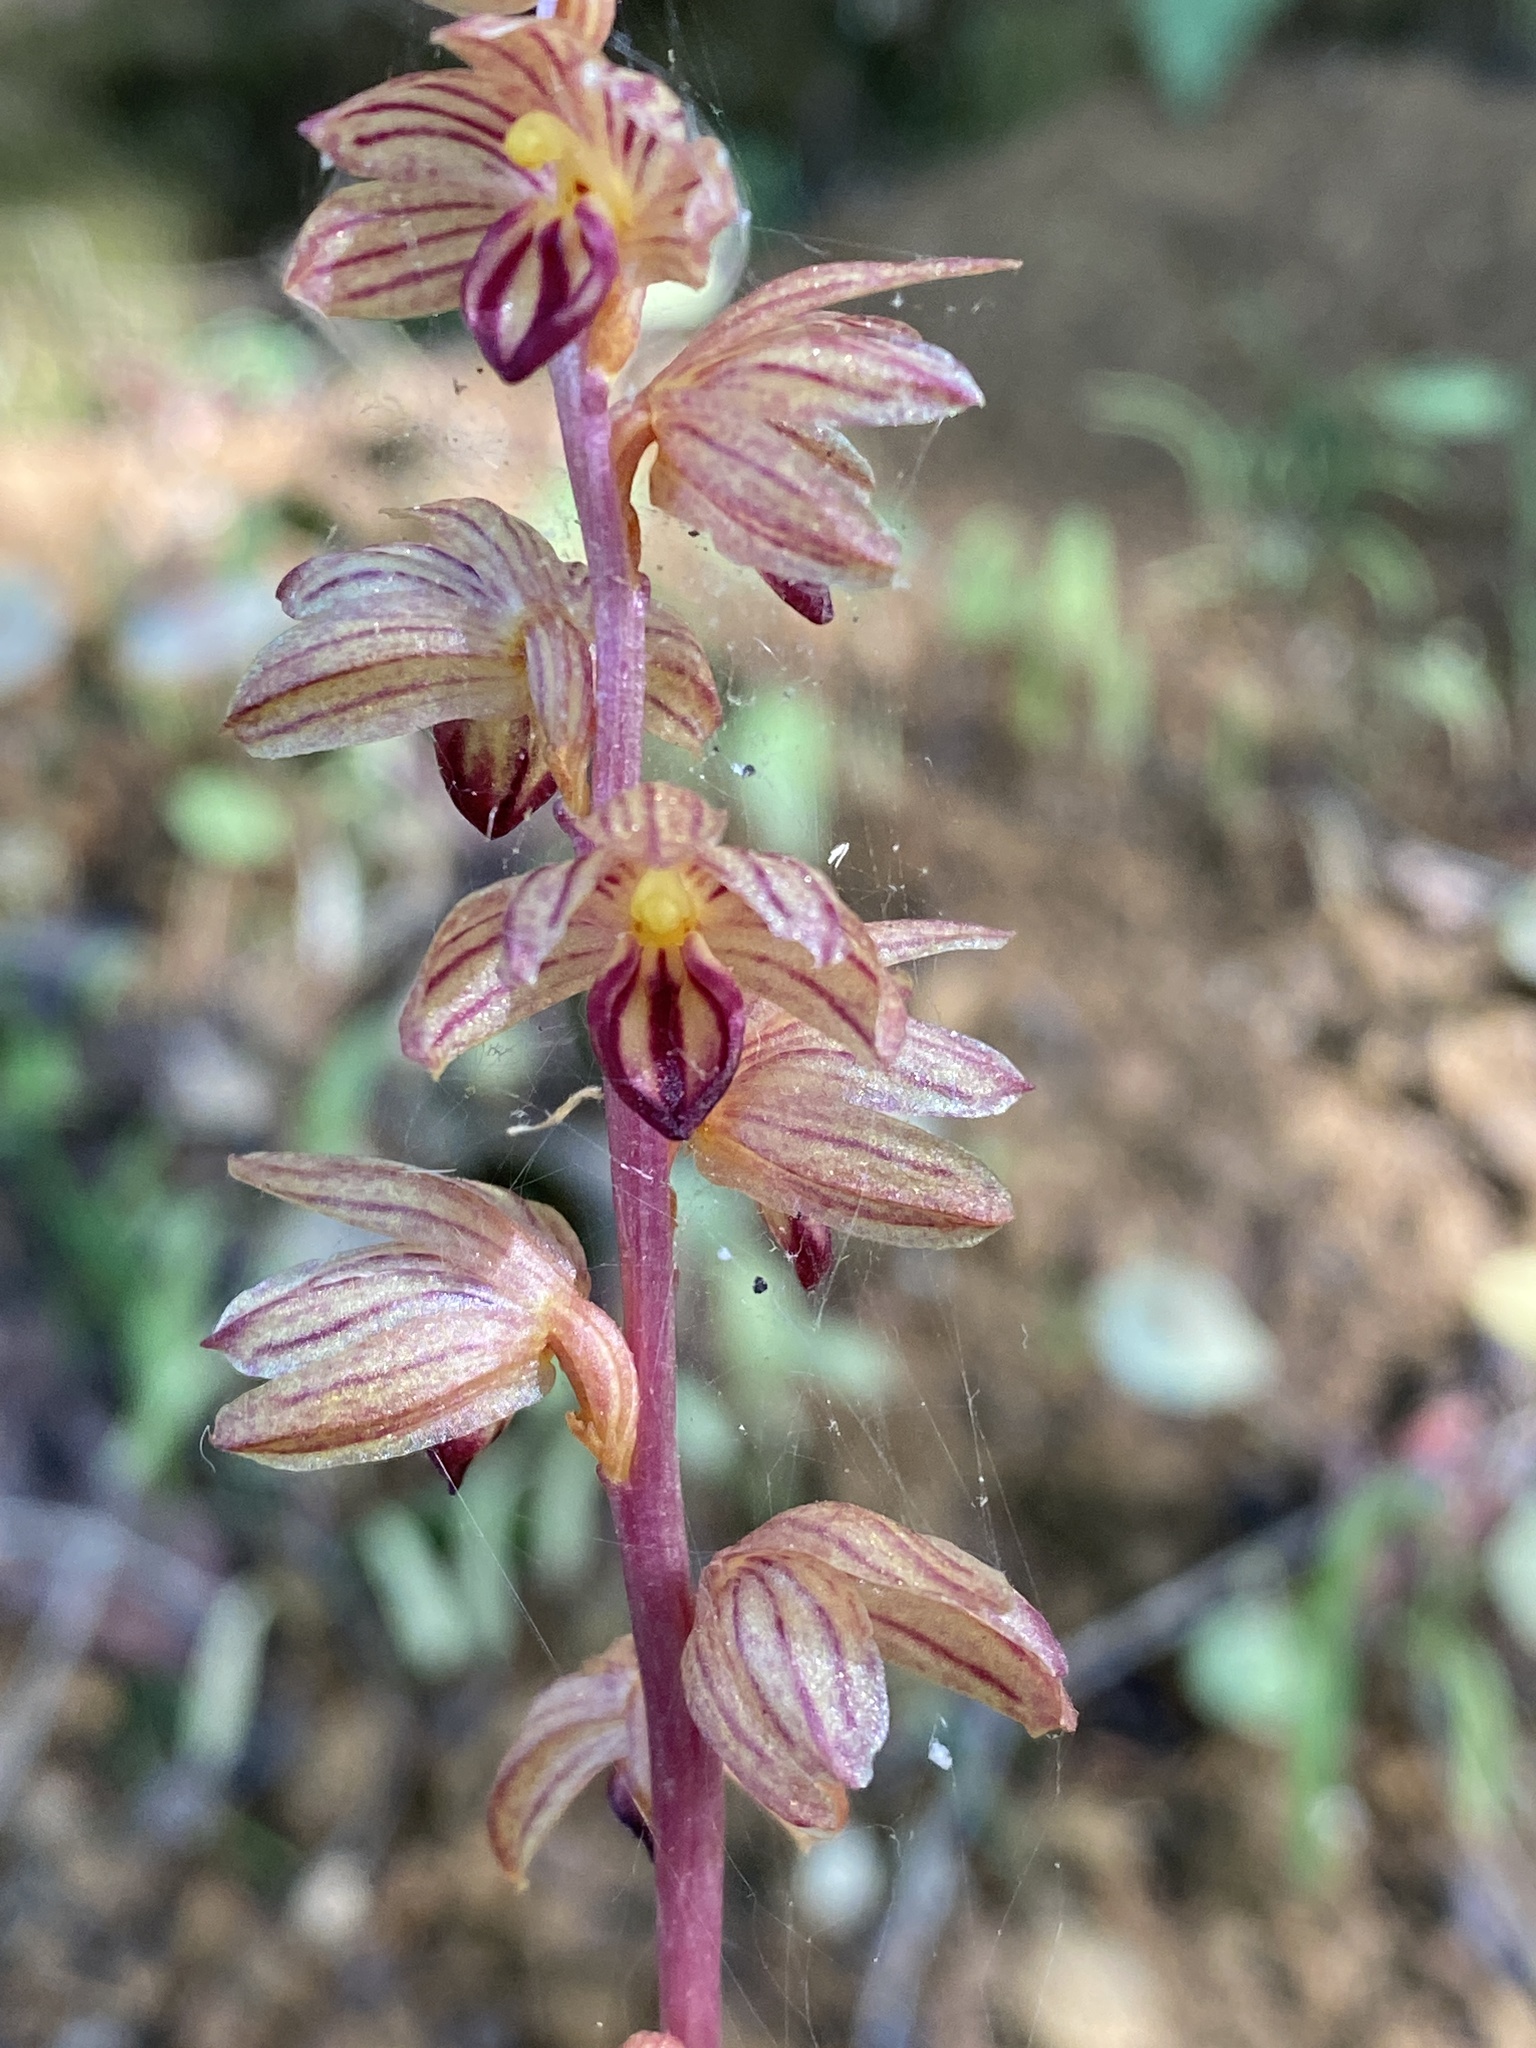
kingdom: Plantae
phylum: Tracheophyta
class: Liliopsida
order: Asparagales
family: Orchidaceae
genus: Corallorhiza
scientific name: Corallorhiza striata
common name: Hooded coralroot
